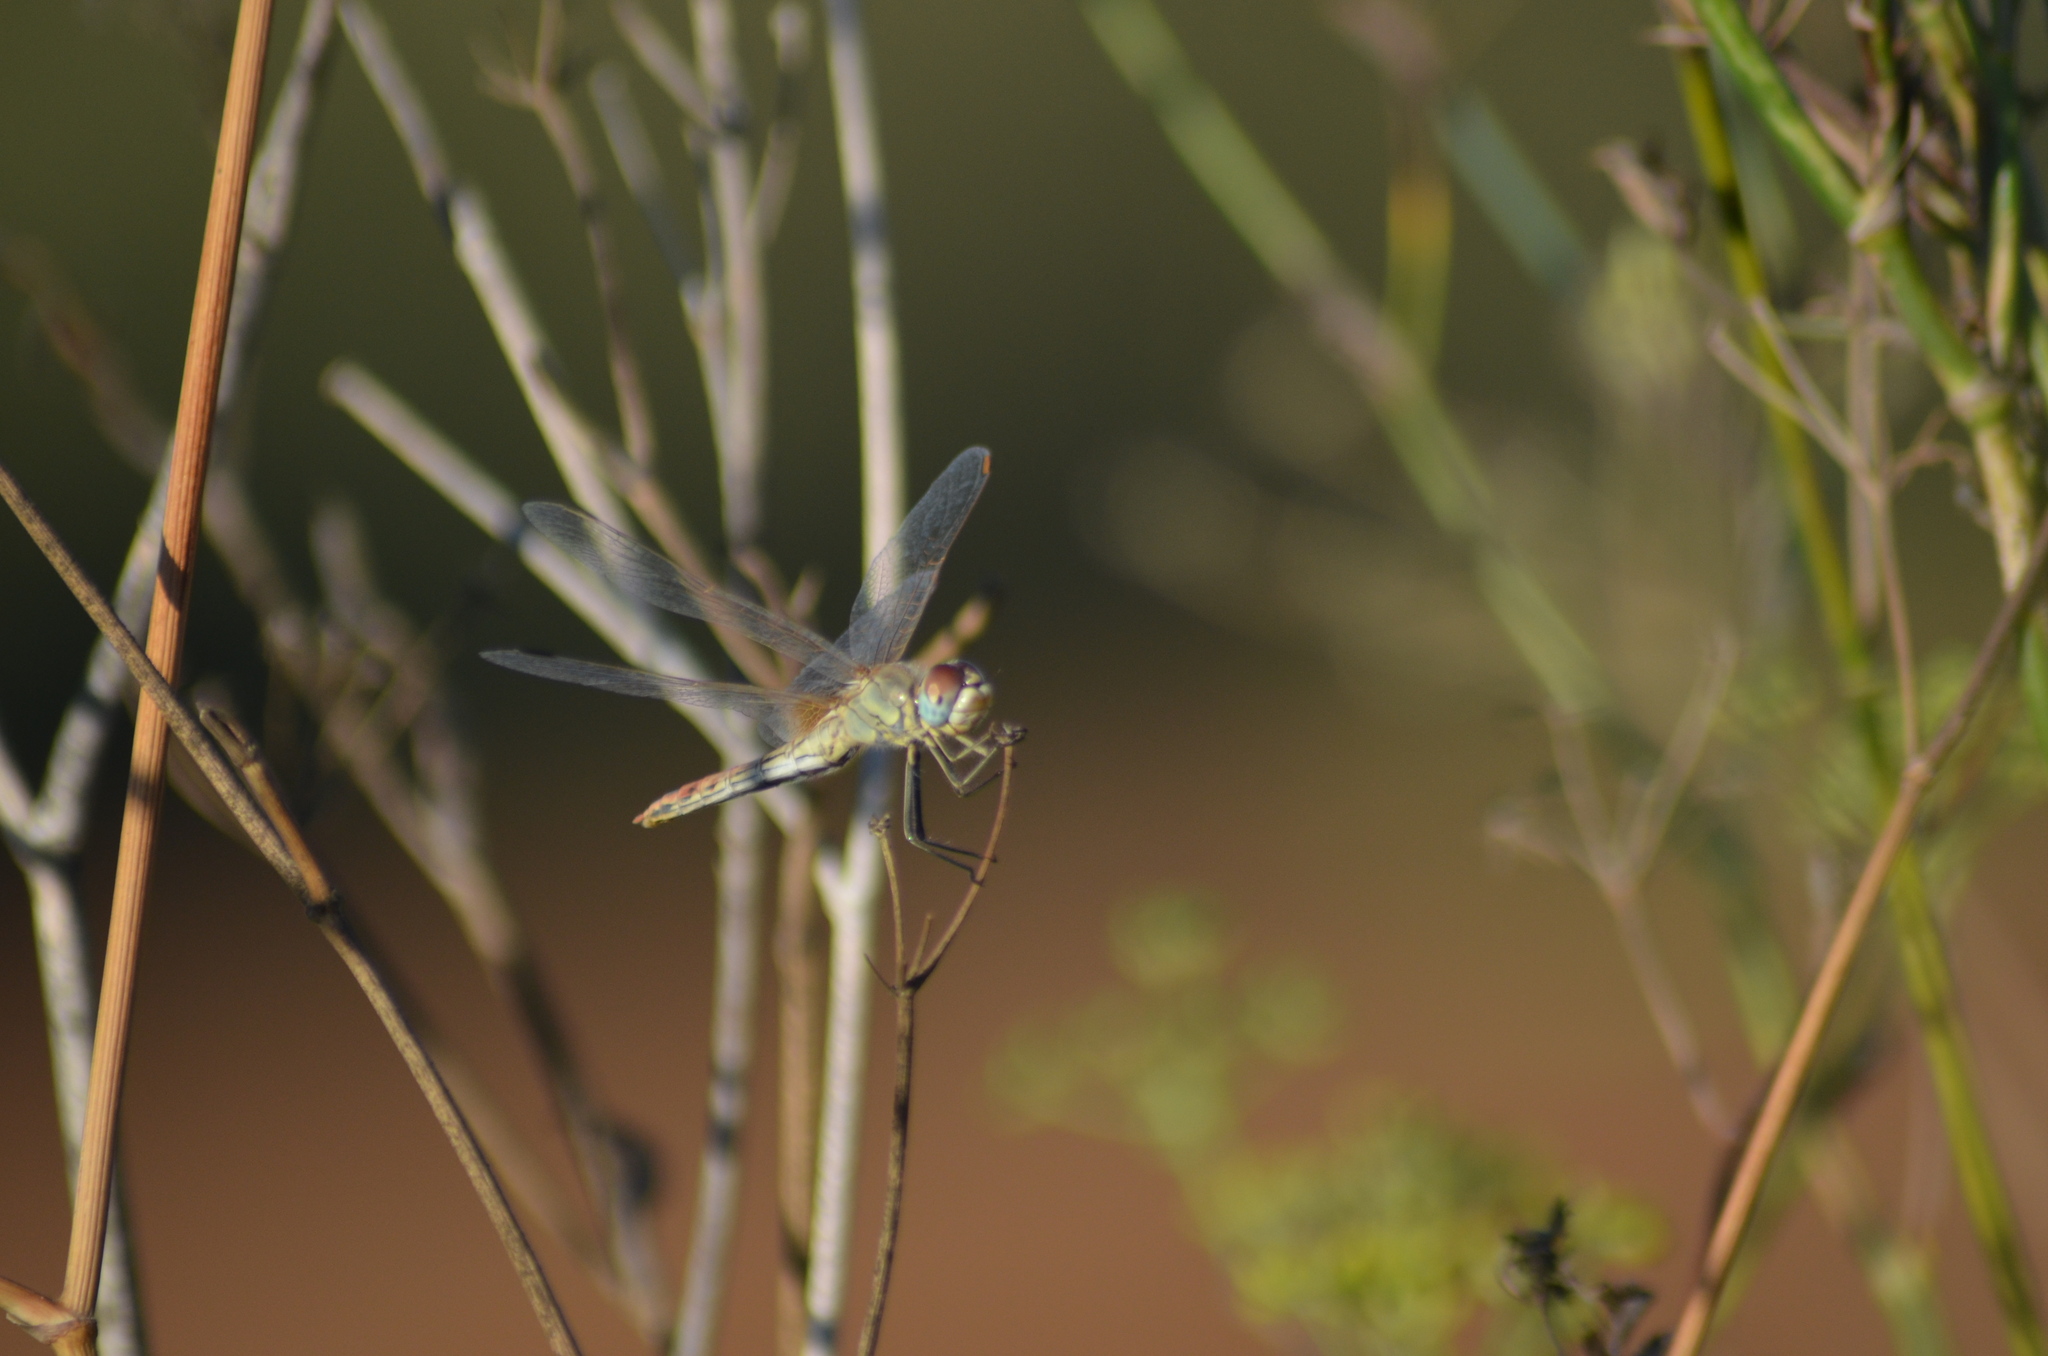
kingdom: Animalia
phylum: Arthropoda
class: Insecta
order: Odonata
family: Libellulidae
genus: Sympetrum
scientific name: Sympetrum fonscolombii
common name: Red-veined darter
